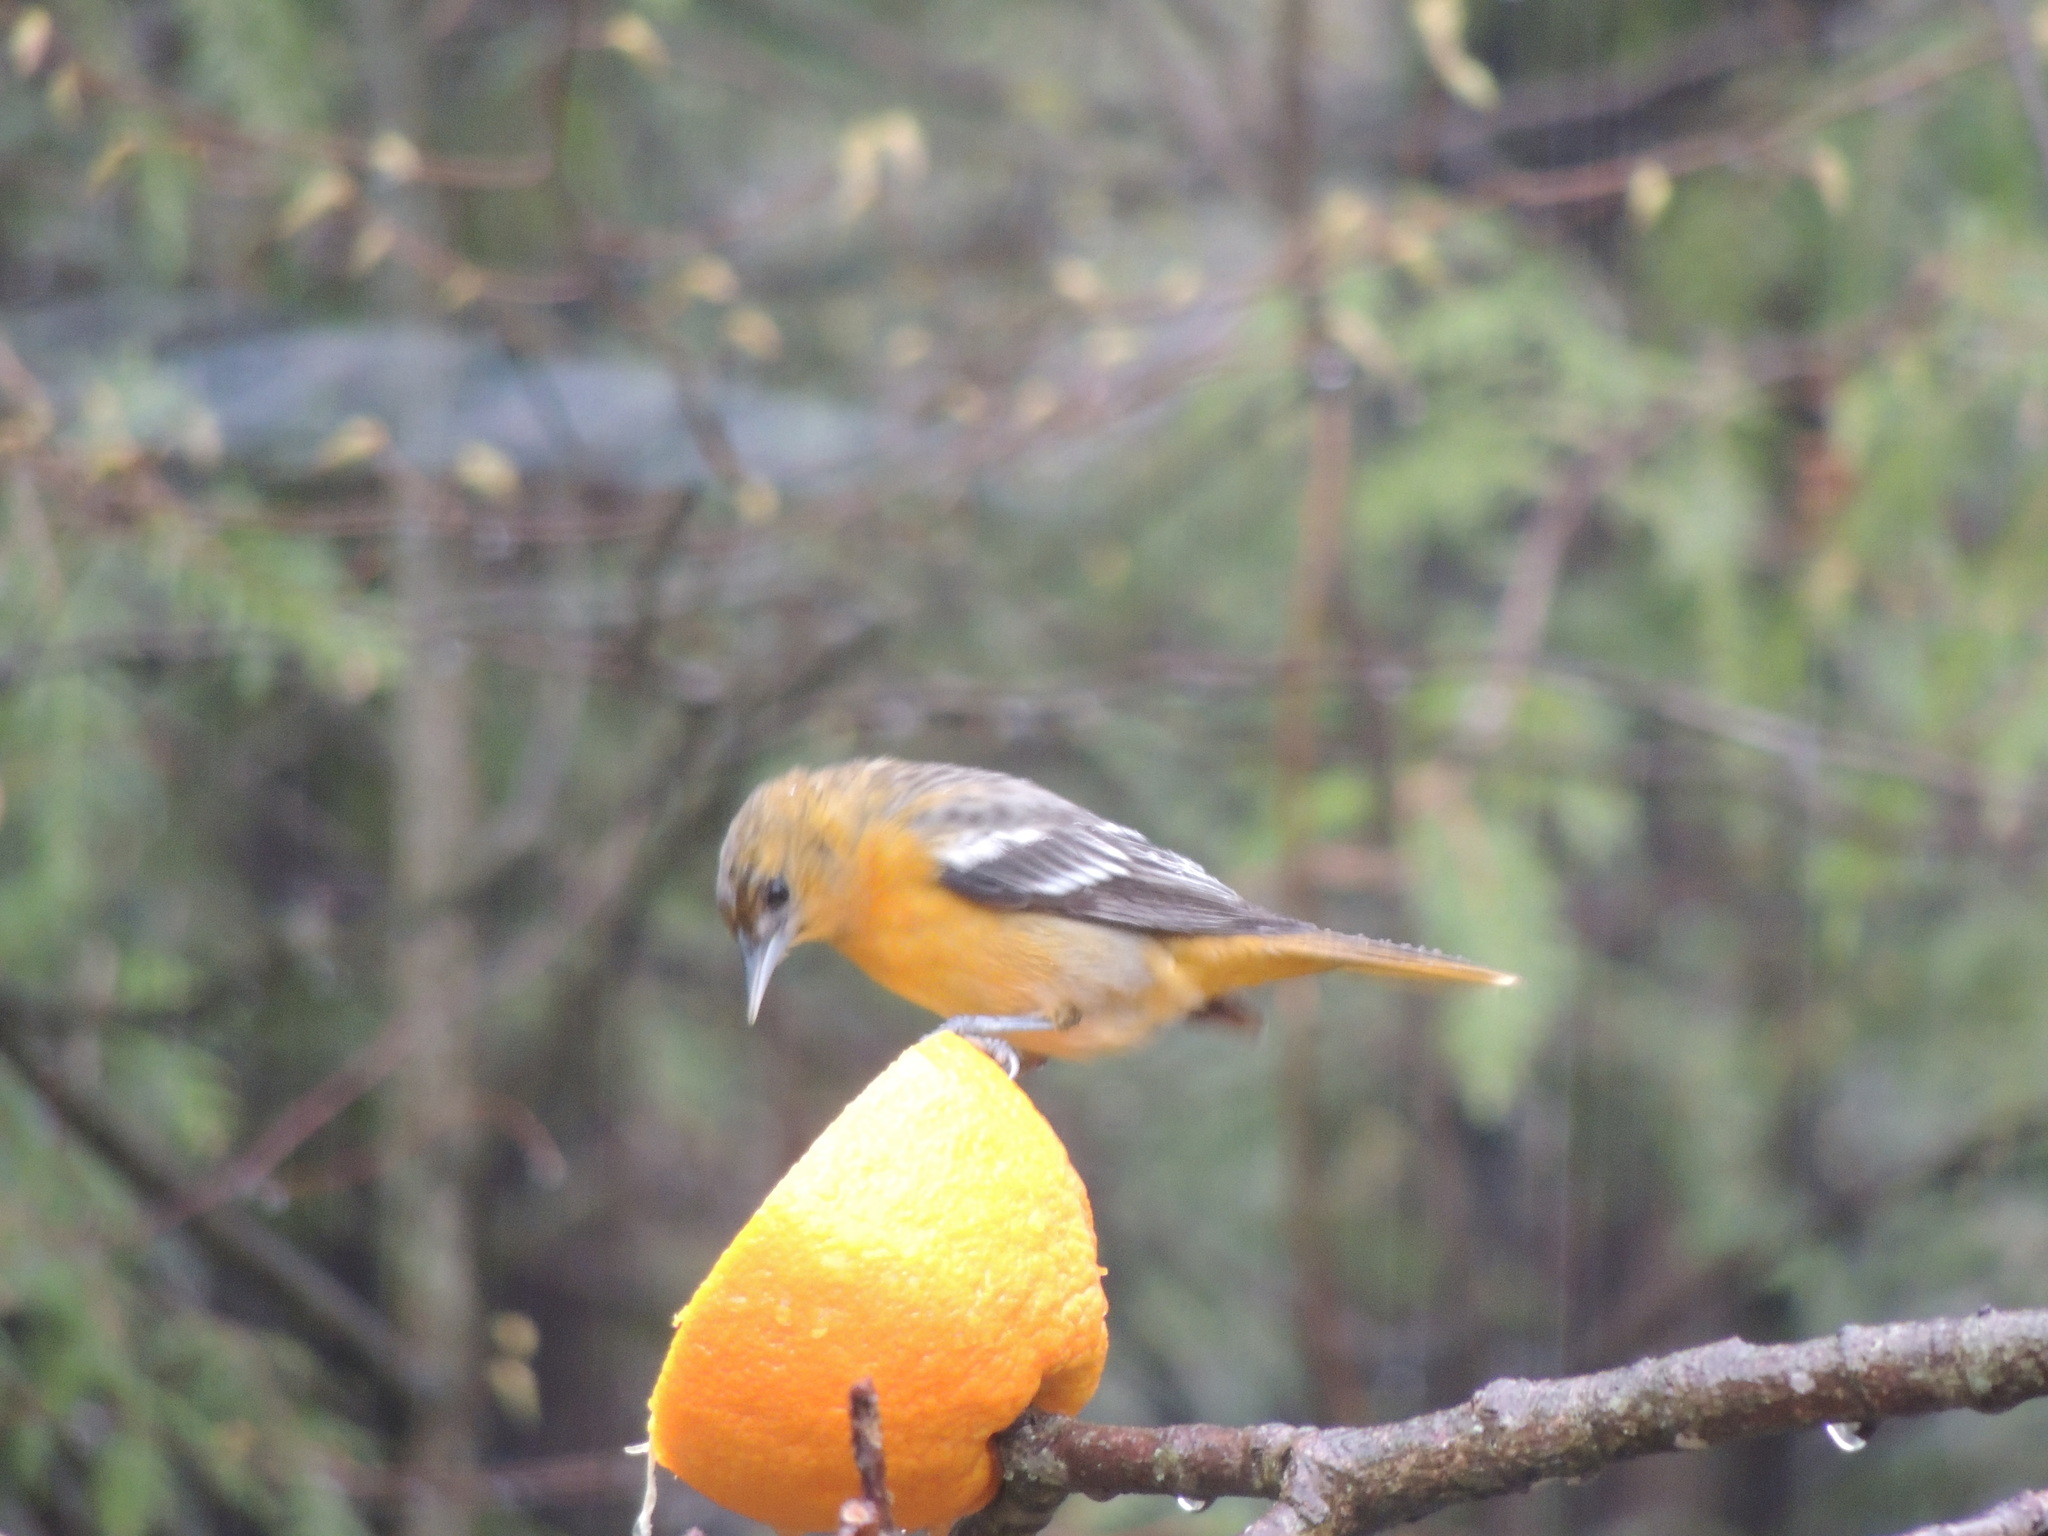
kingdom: Animalia
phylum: Chordata
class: Aves
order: Passeriformes
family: Icteridae
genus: Icterus
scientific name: Icterus galbula
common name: Baltimore oriole
